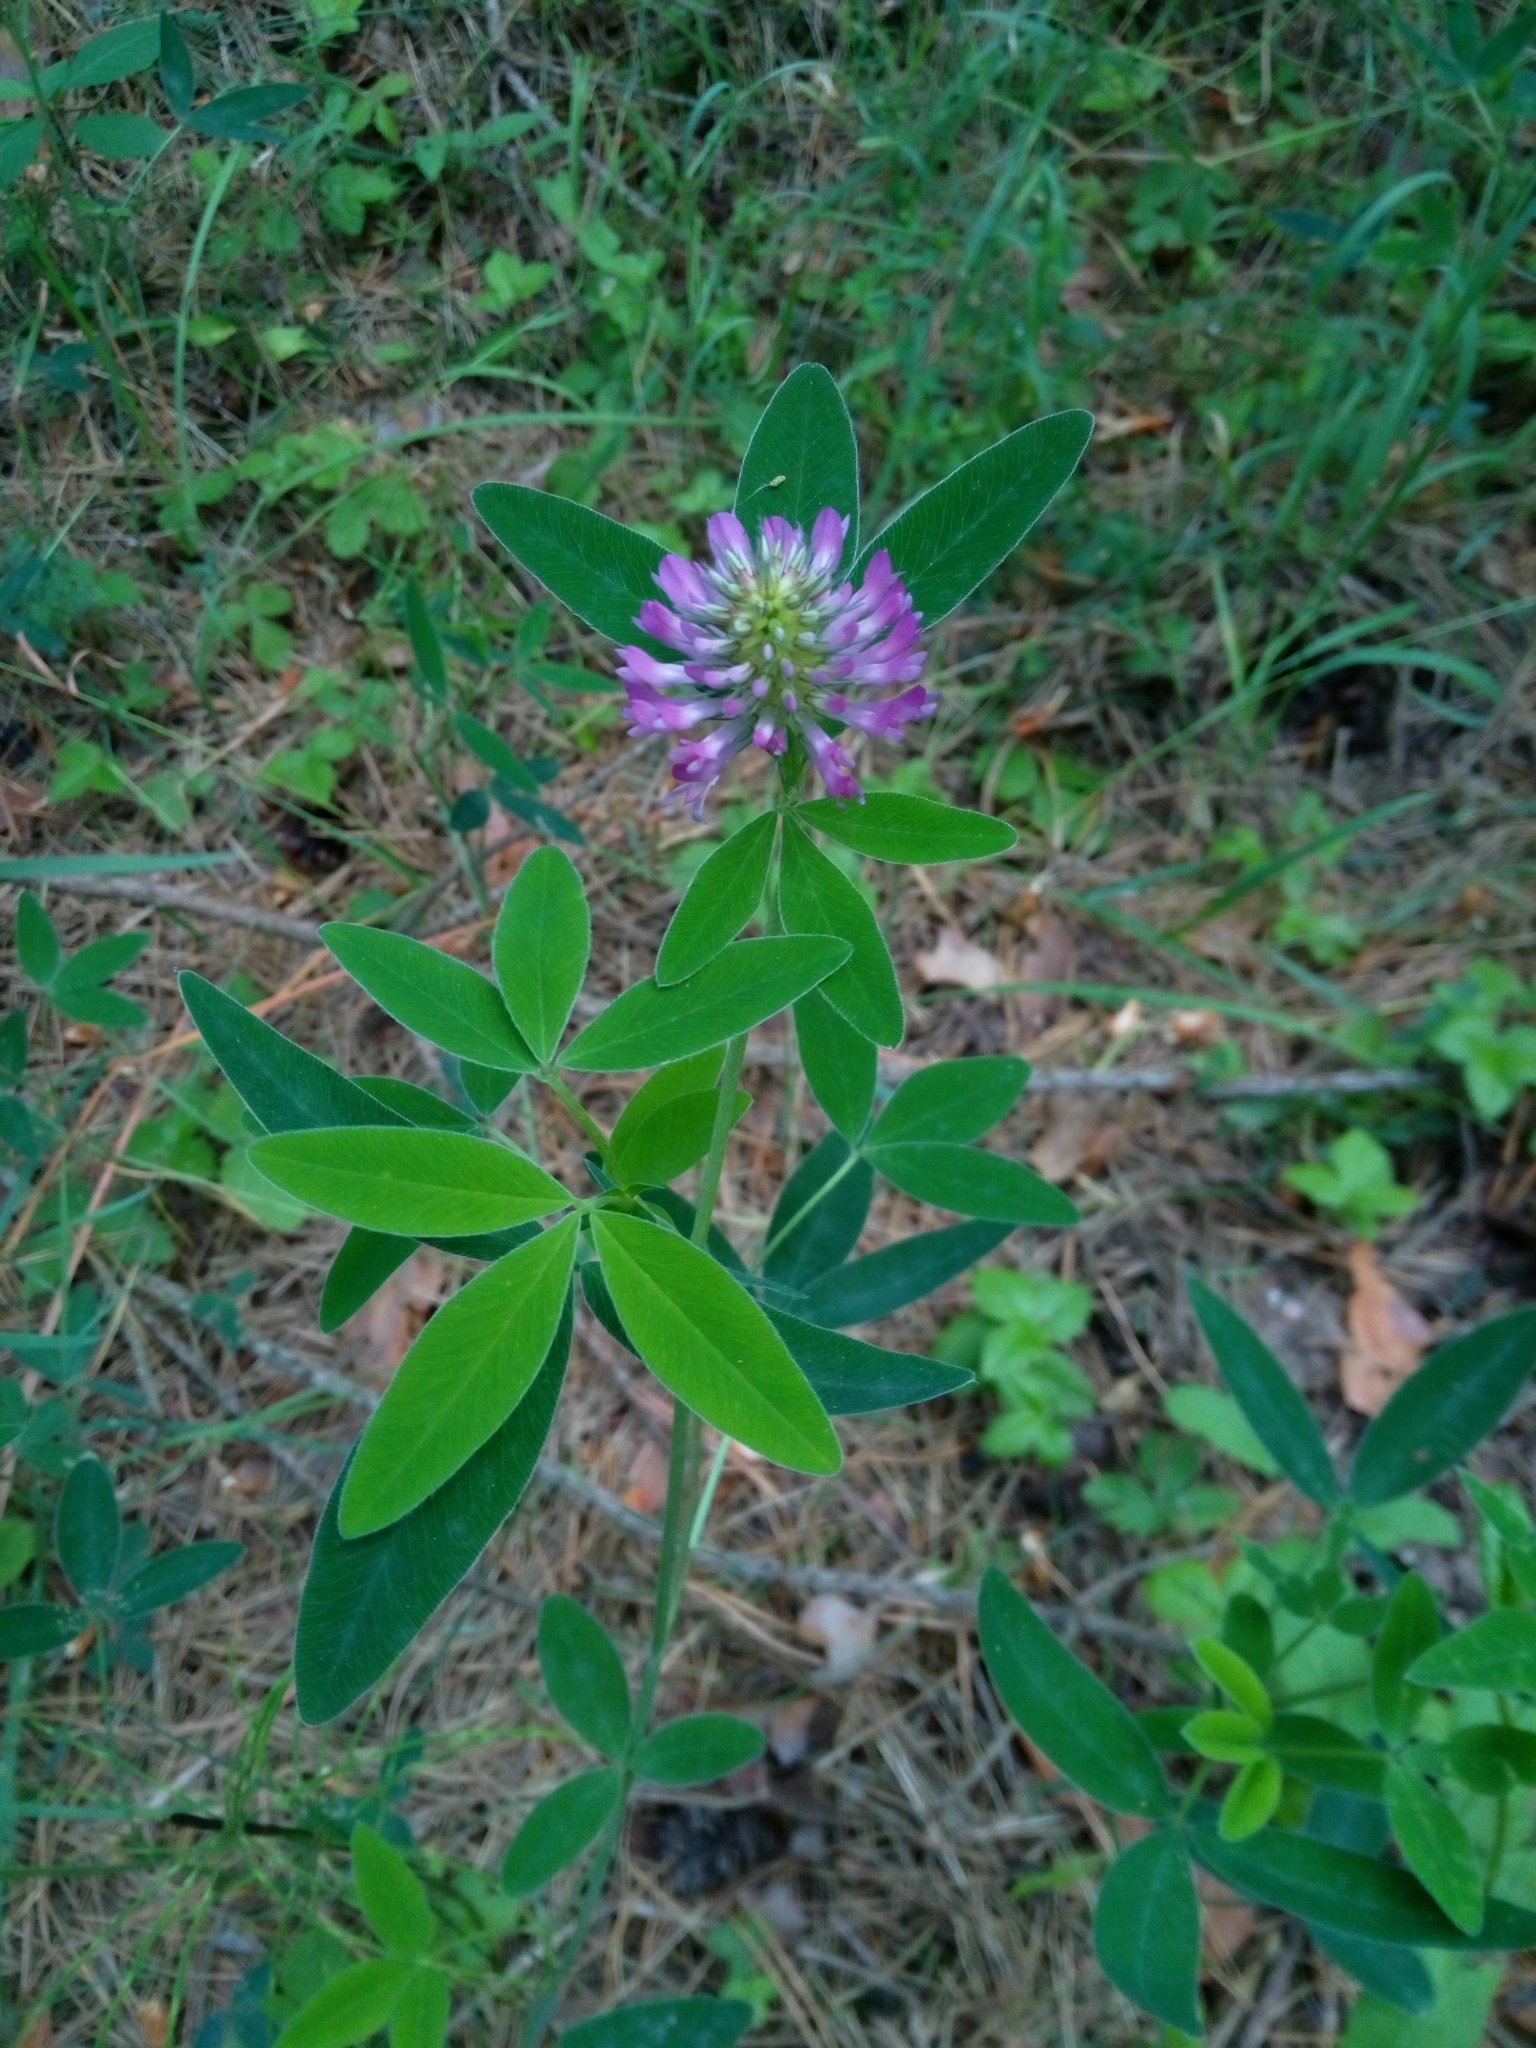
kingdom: Plantae
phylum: Tracheophyta
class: Magnoliopsida
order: Fabales
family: Fabaceae
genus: Trifolium
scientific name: Trifolium medium
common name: Zigzag clover
